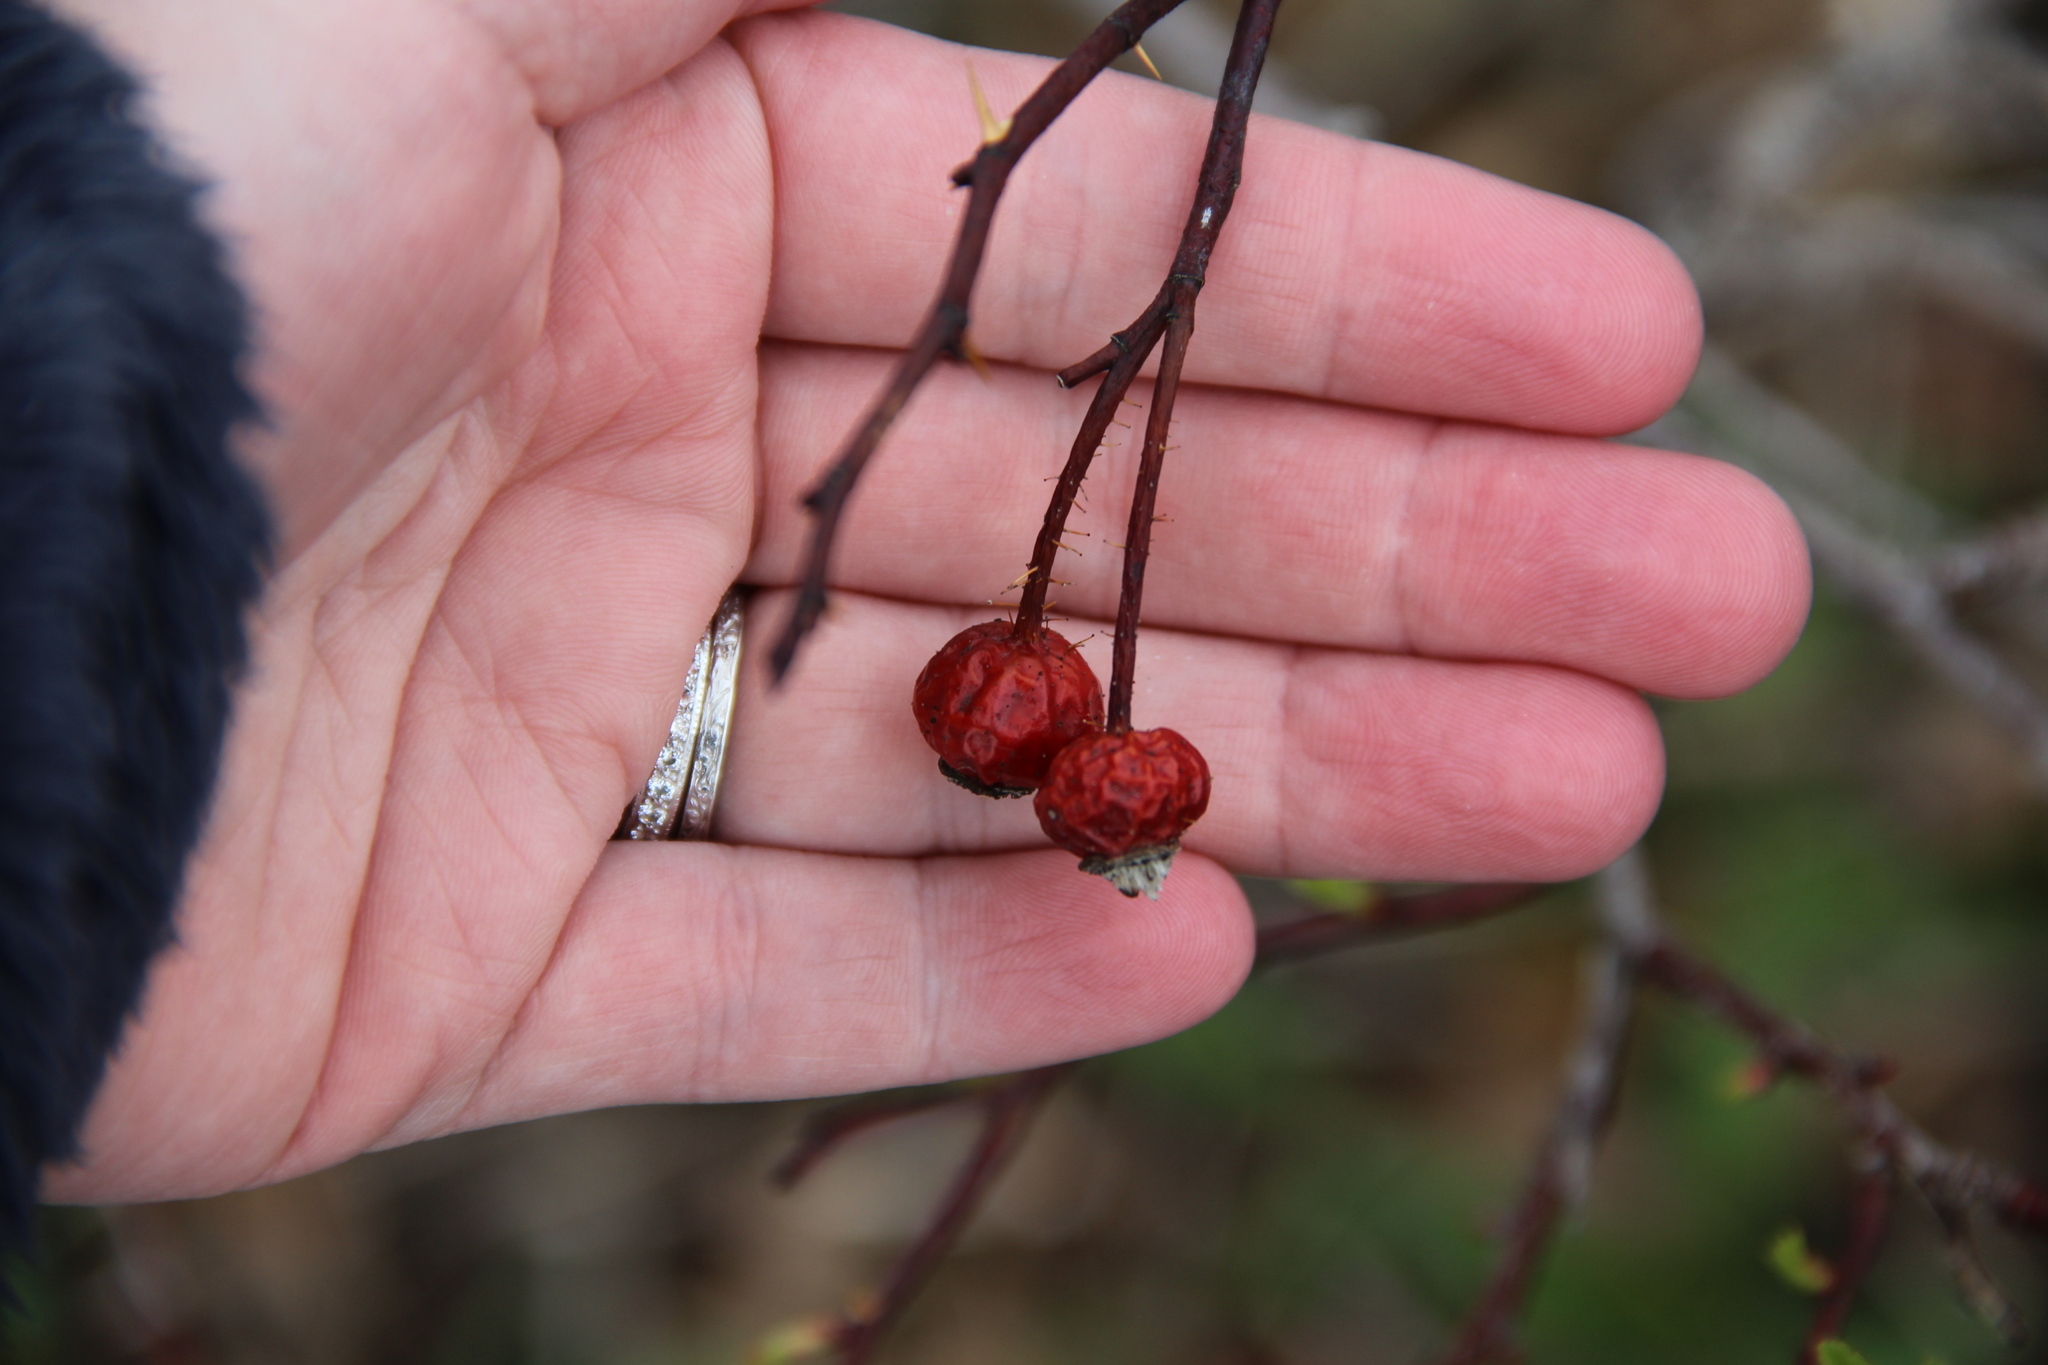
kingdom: Plantae
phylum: Tracheophyta
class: Magnoliopsida
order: Rosales
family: Rosaceae
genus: Rosa
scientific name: Rosa rugosa
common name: Japanese rose
